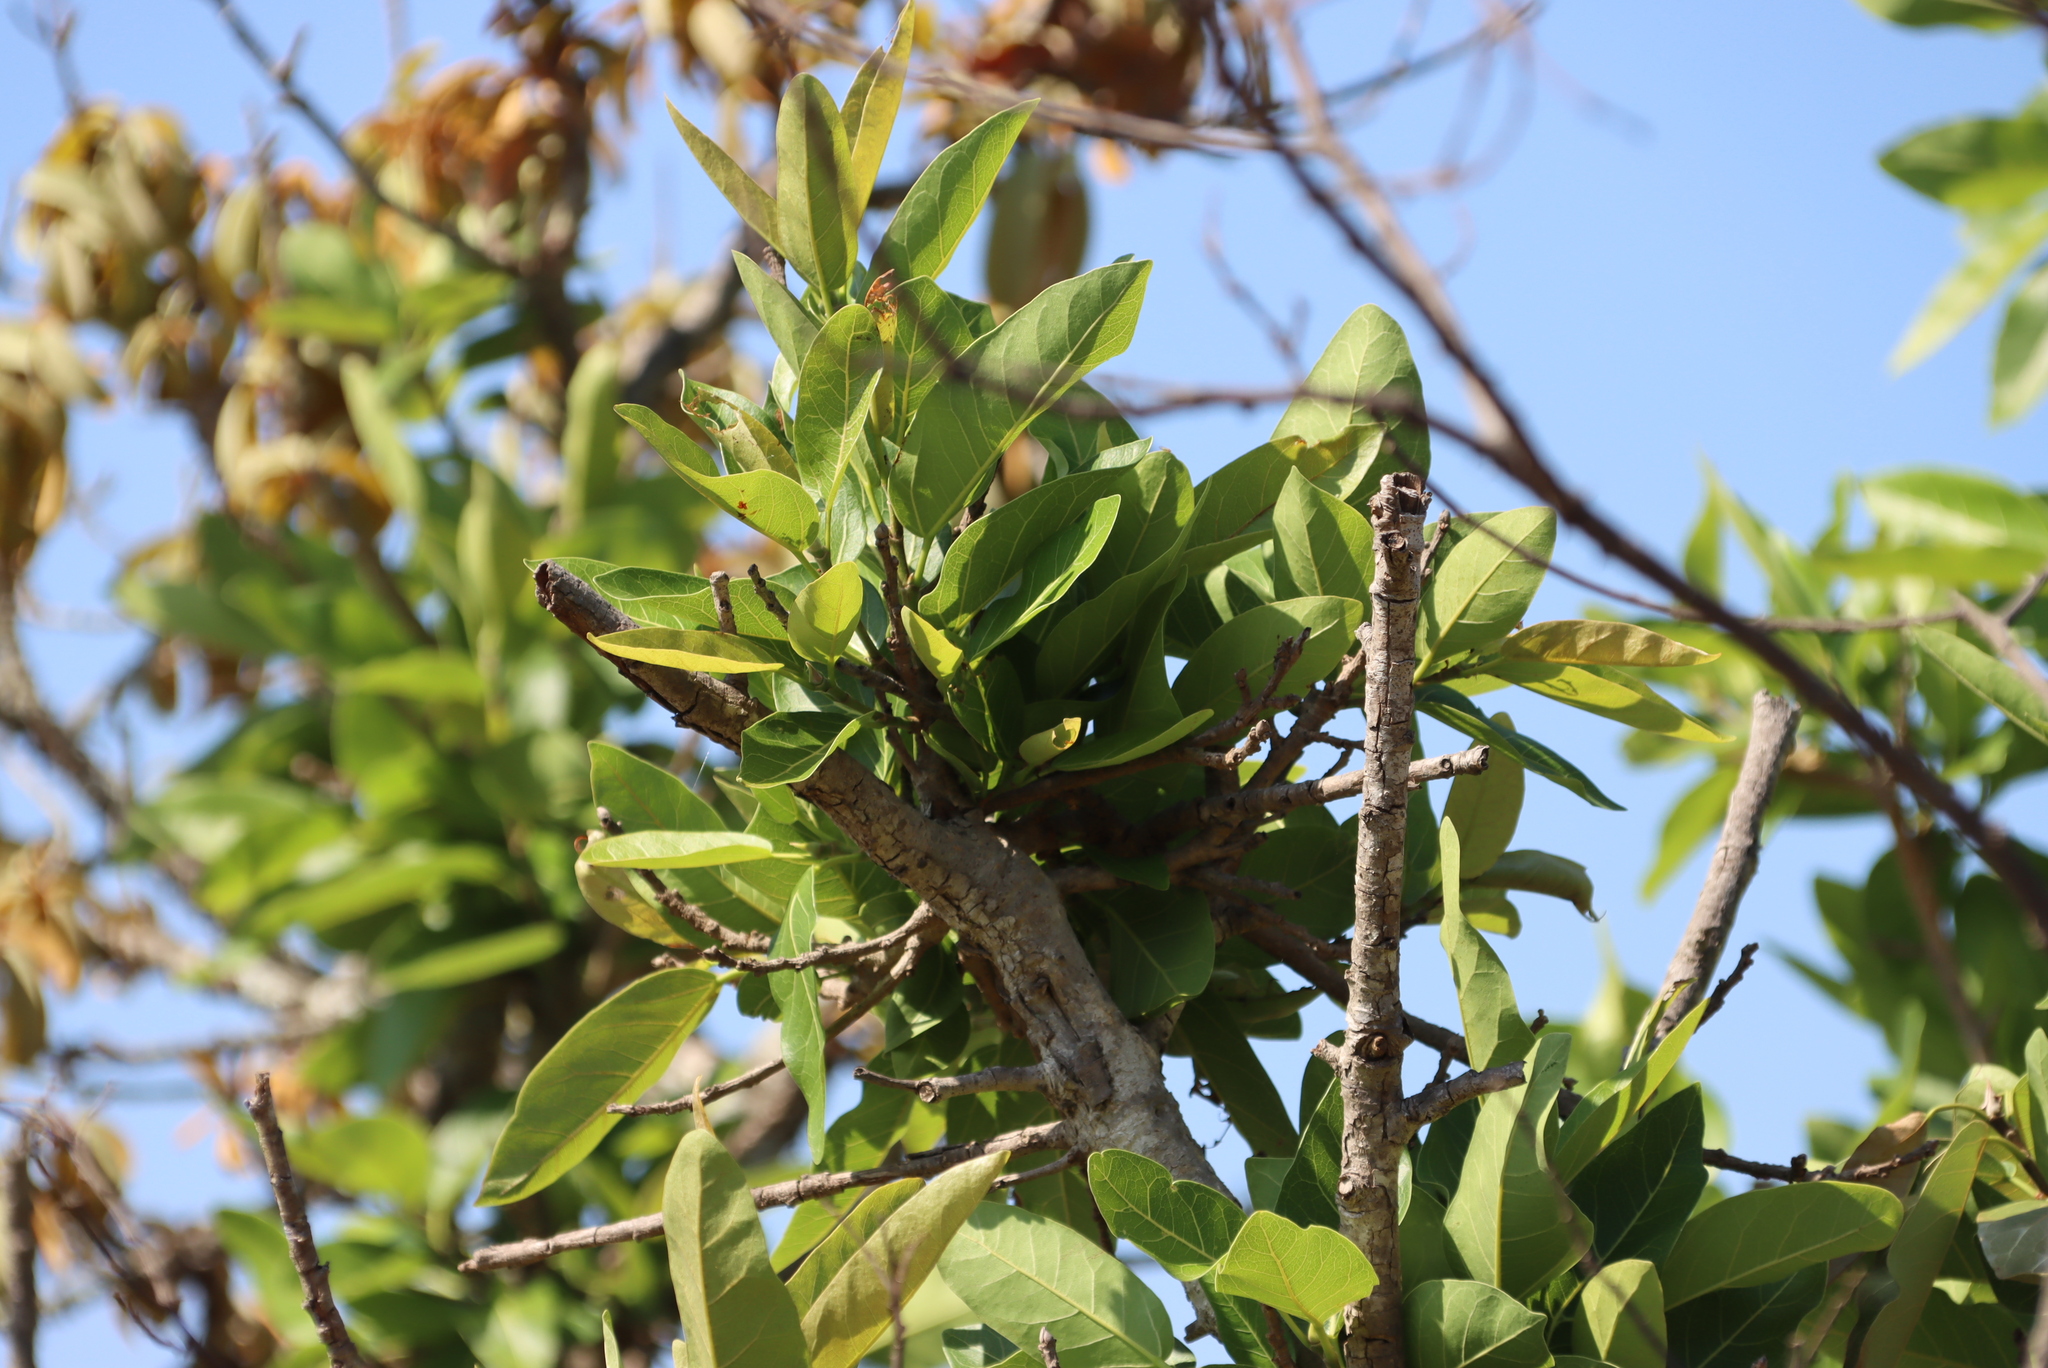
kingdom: Plantae
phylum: Tracheophyta
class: Magnoliopsida
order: Rosales
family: Moraceae
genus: Ficus
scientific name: Ficus ingens
